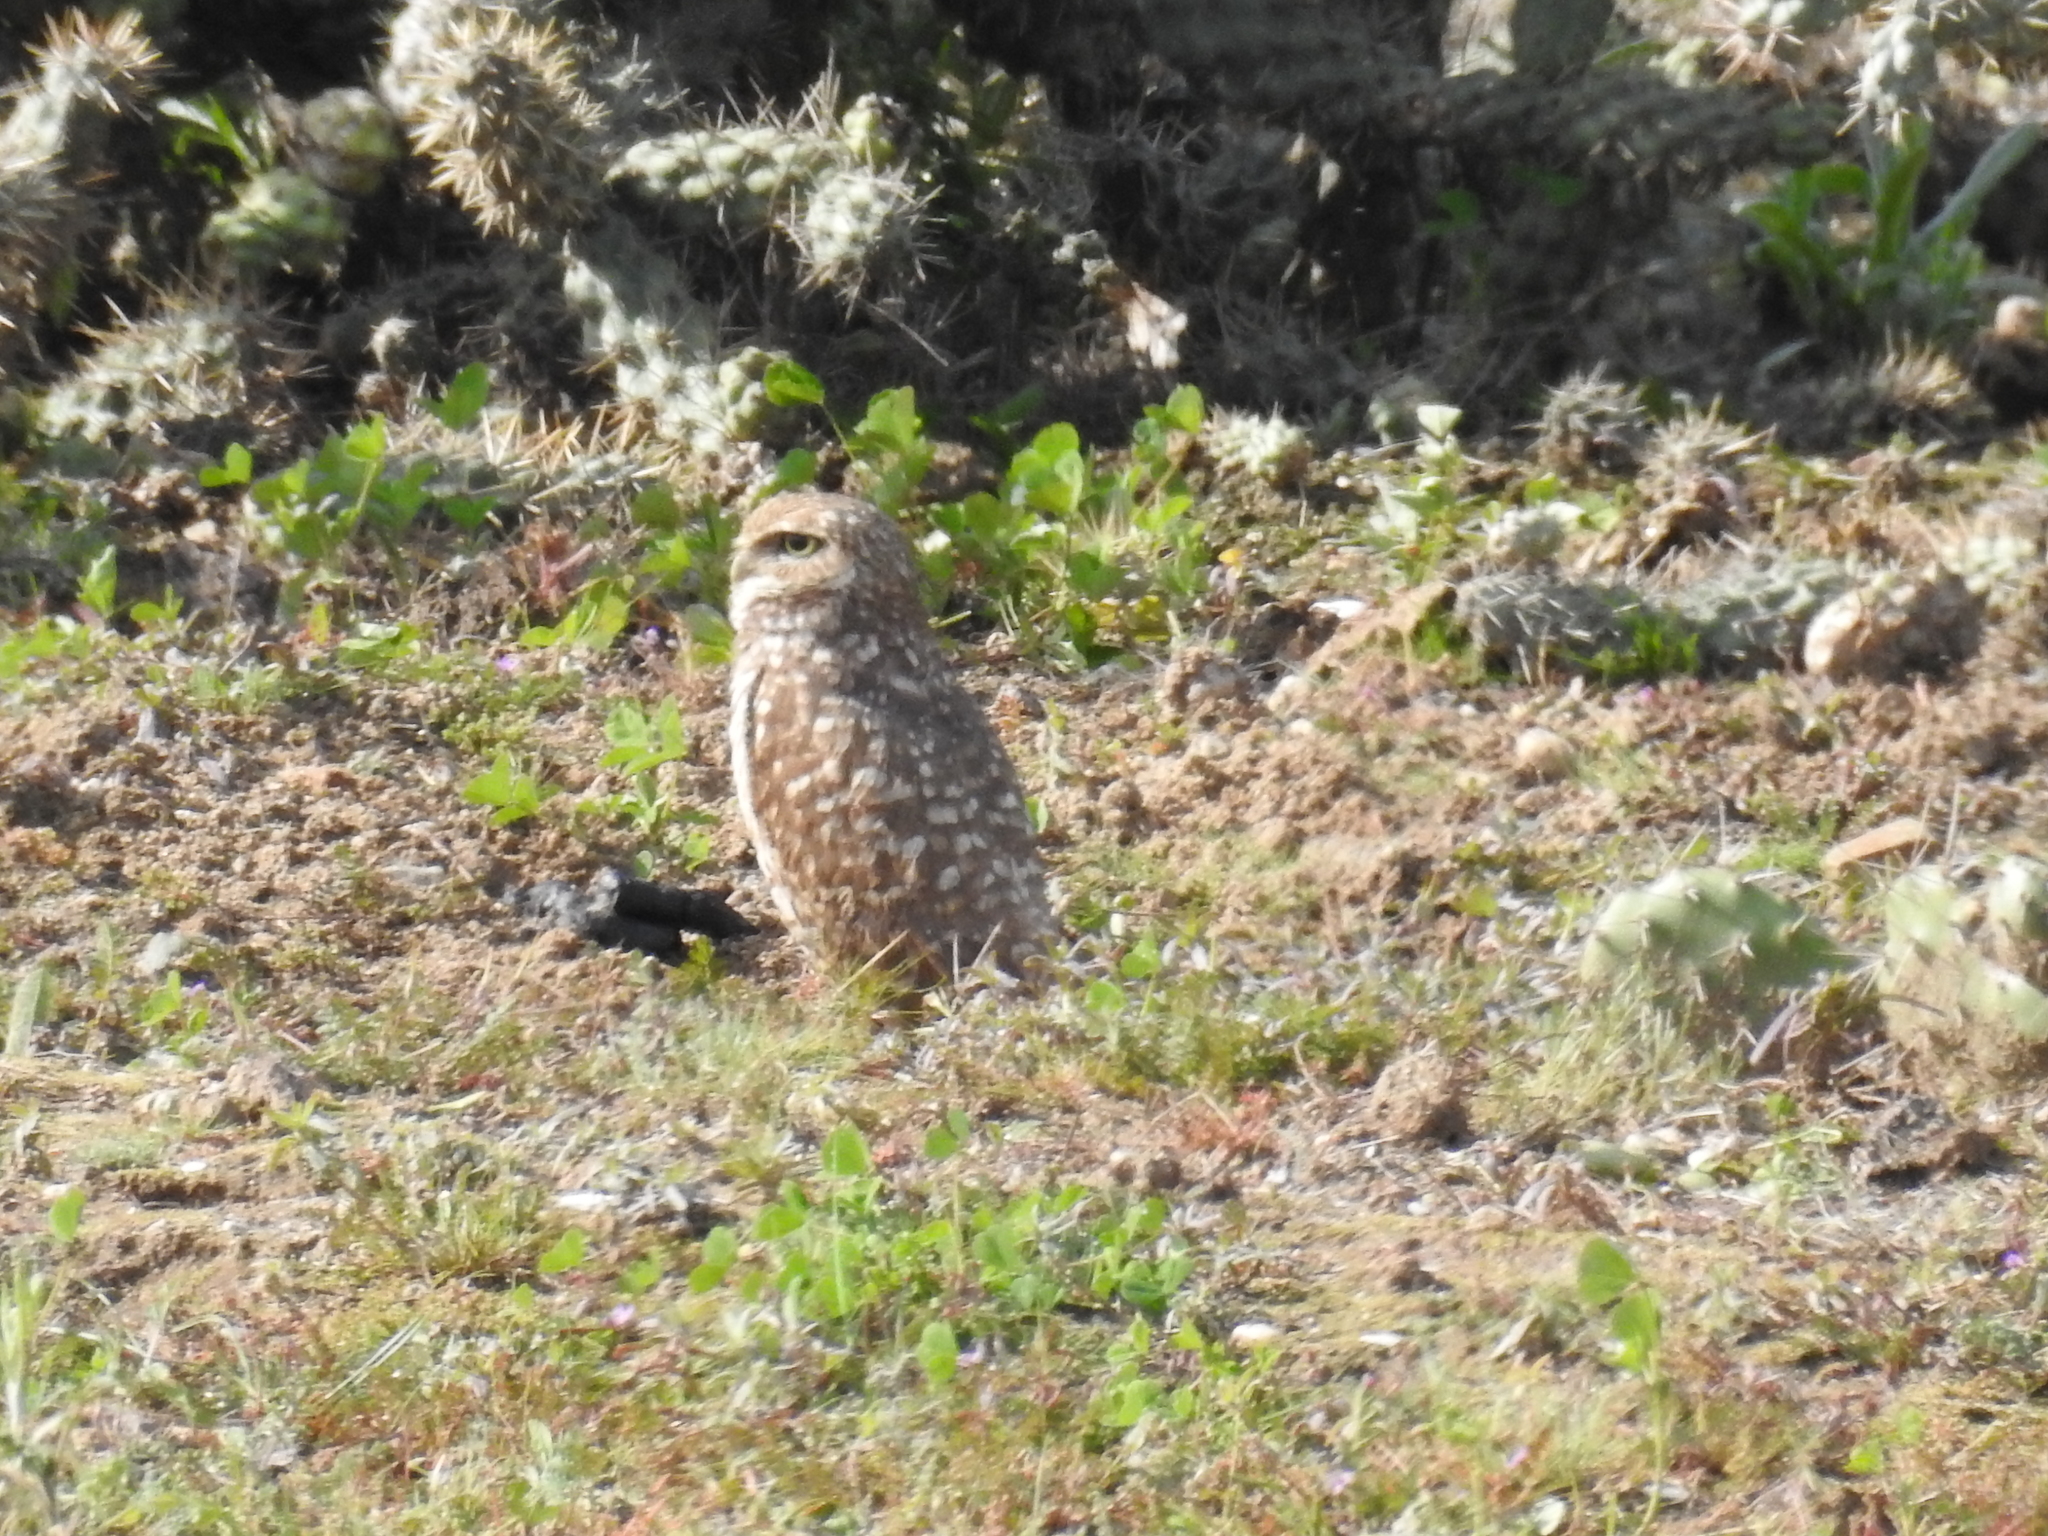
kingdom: Animalia
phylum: Chordata
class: Aves
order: Strigiformes
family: Strigidae
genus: Athene
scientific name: Athene cunicularia
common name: Burrowing owl
